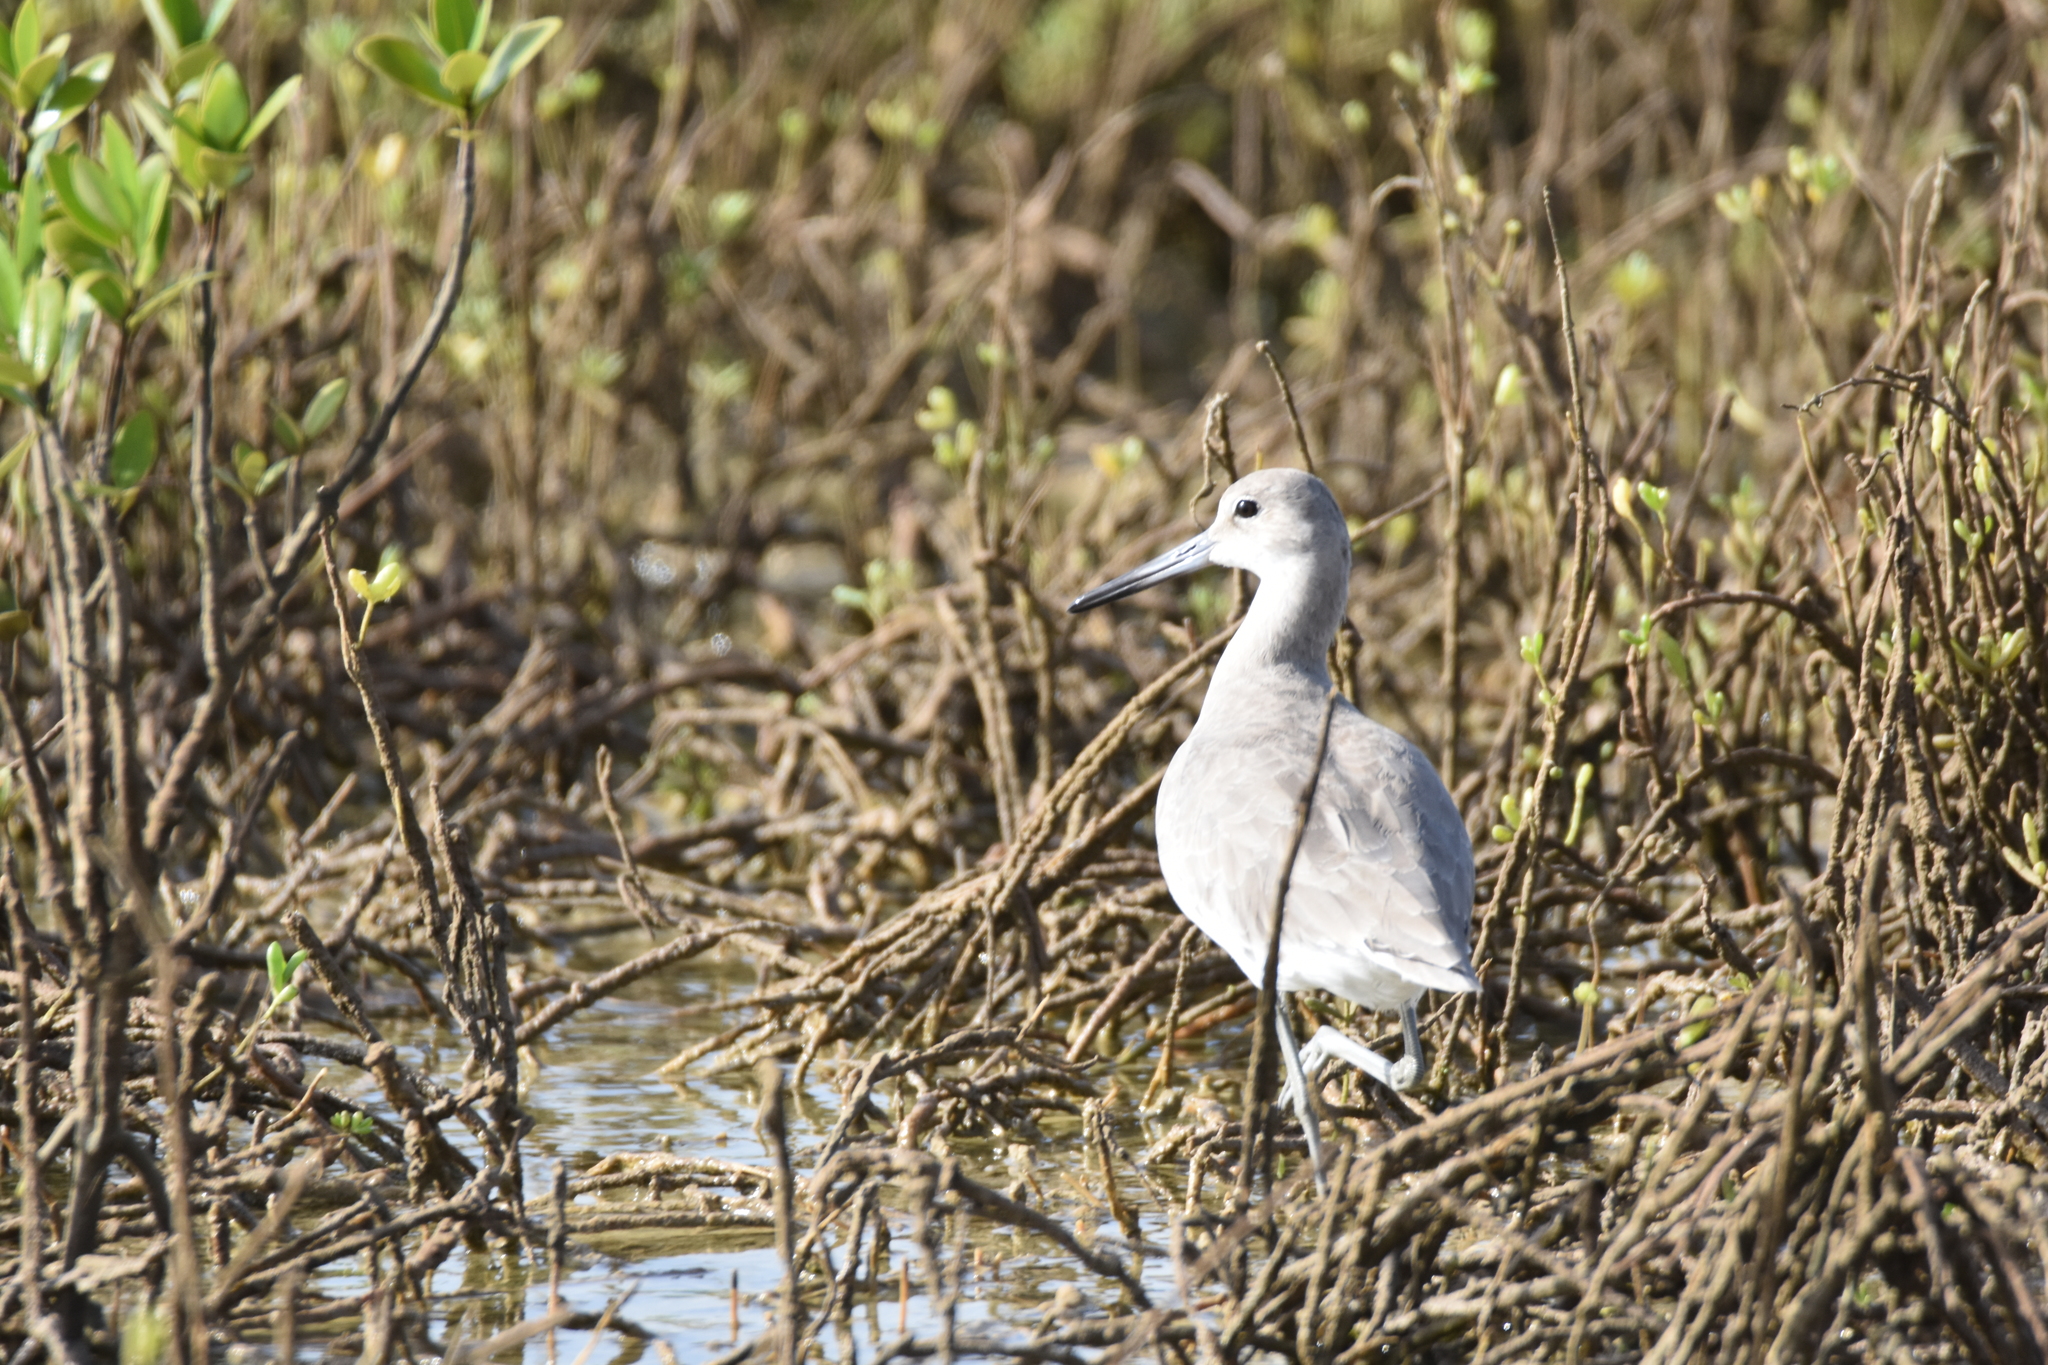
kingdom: Animalia
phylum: Chordata
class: Aves
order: Charadriiformes
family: Scolopacidae
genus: Tringa
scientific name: Tringa semipalmata
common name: Willet
